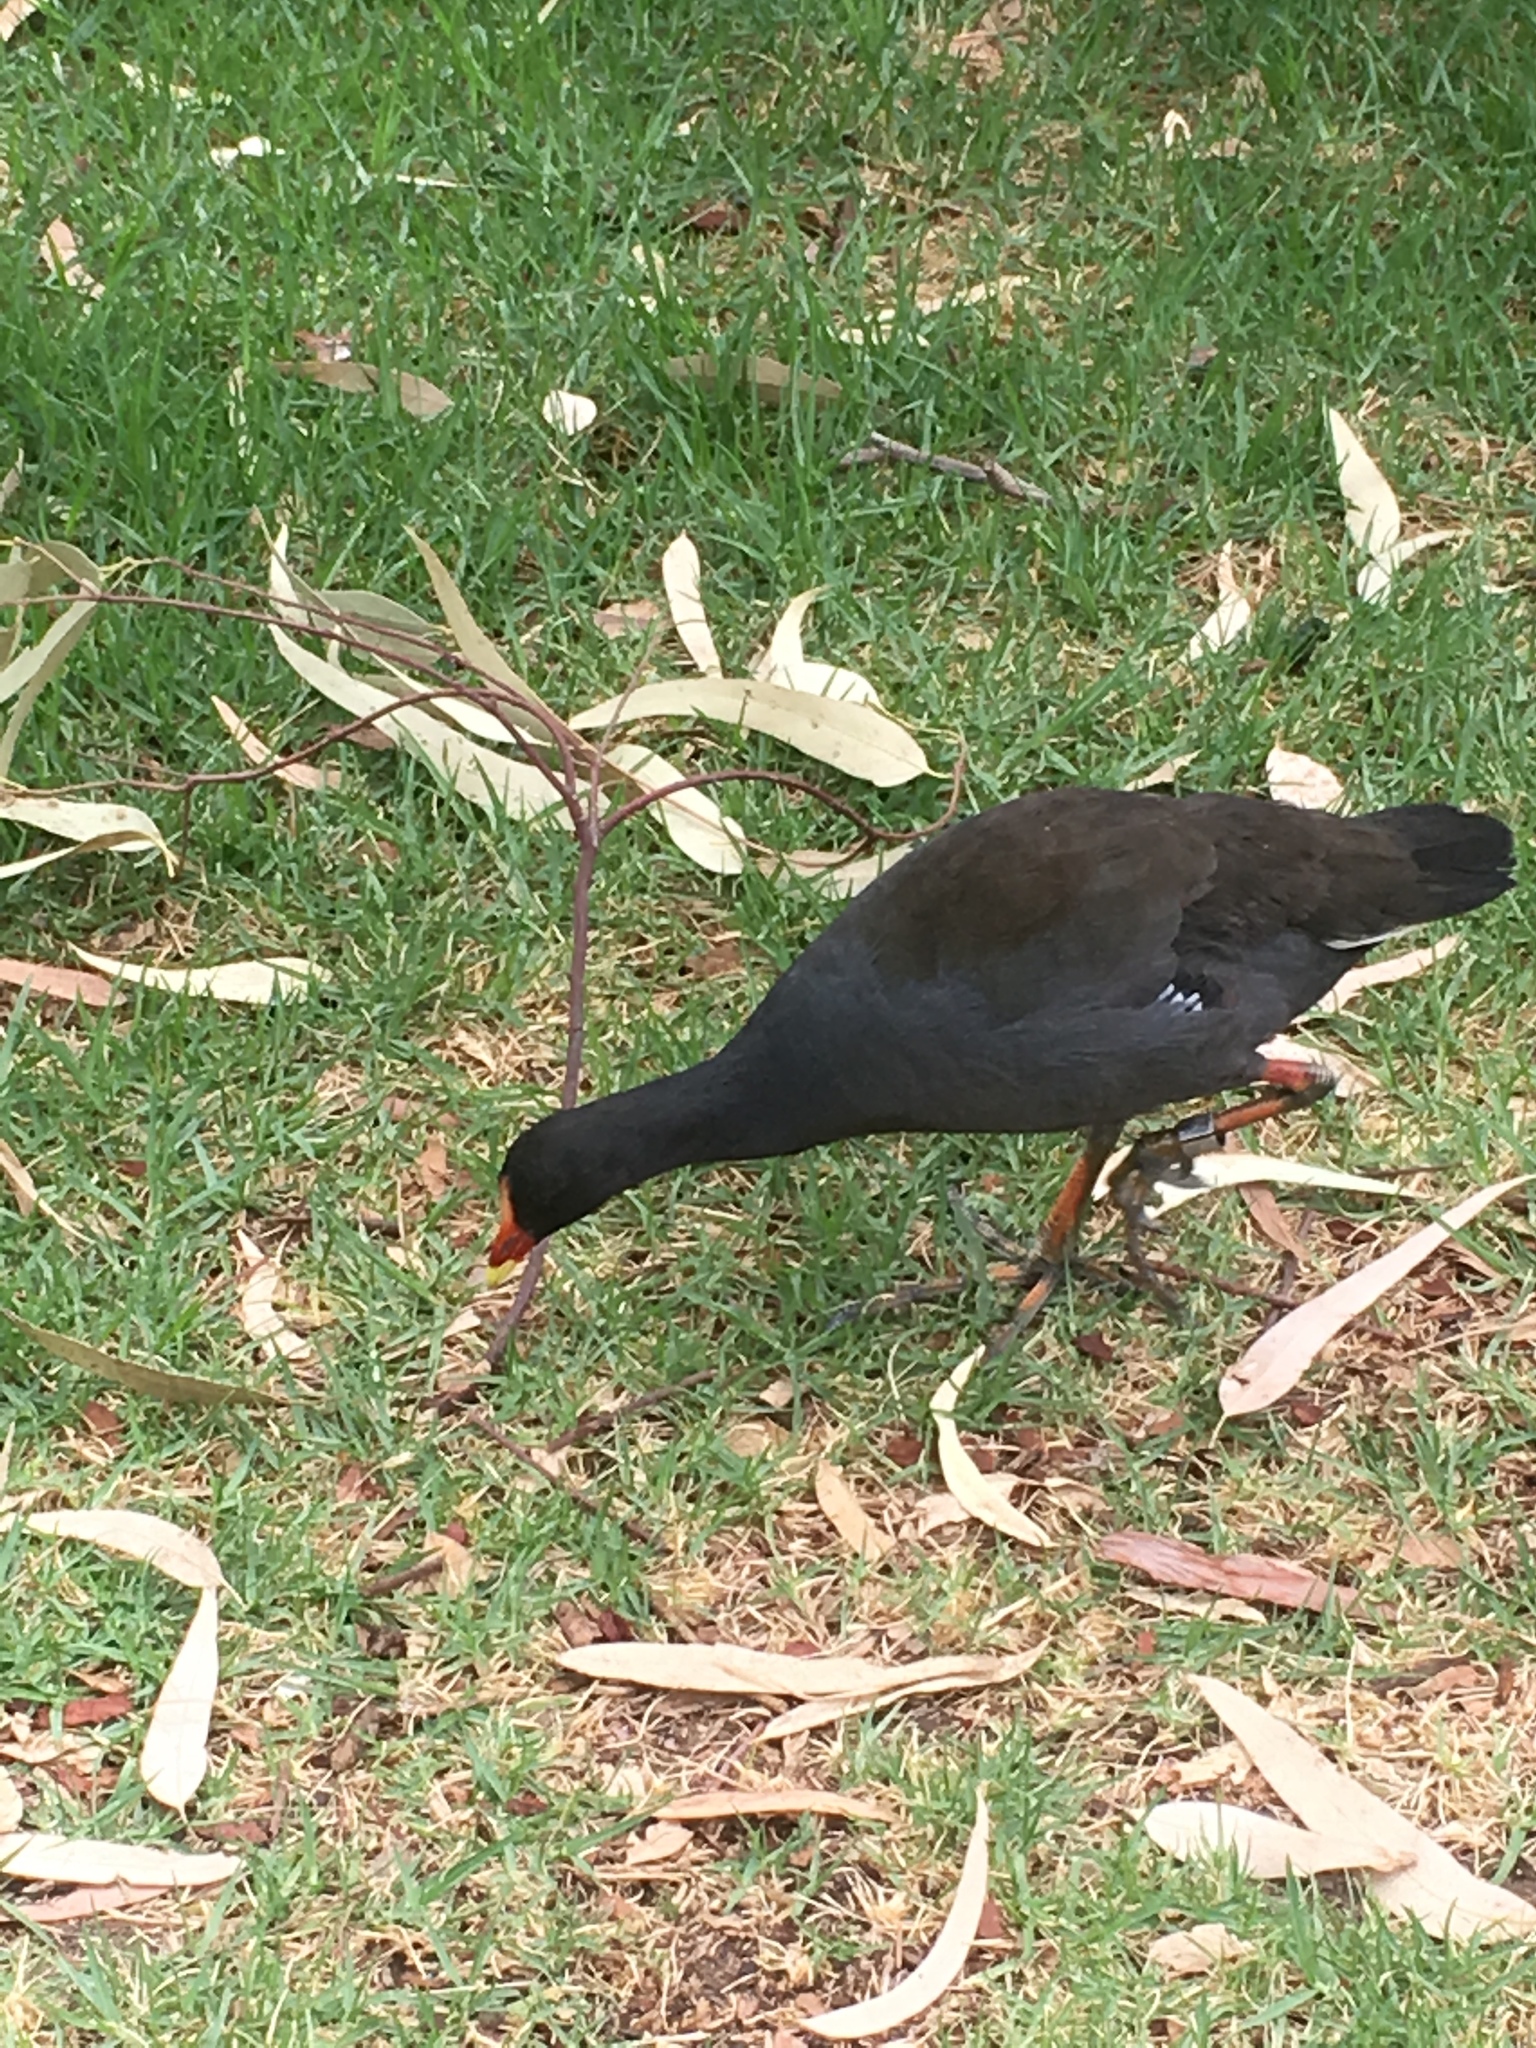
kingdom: Animalia
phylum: Chordata
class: Aves
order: Gruiformes
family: Rallidae
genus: Gallinula
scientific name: Gallinula tenebrosa
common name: Dusky moorhen
